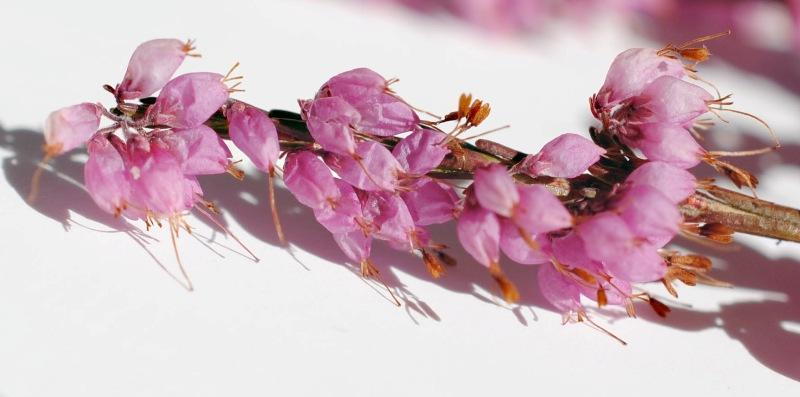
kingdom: Plantae
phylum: Tracheophyta
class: Magnoliopsida
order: Ericales
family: Ericaceae
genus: Erica
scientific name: Erica rosacea
